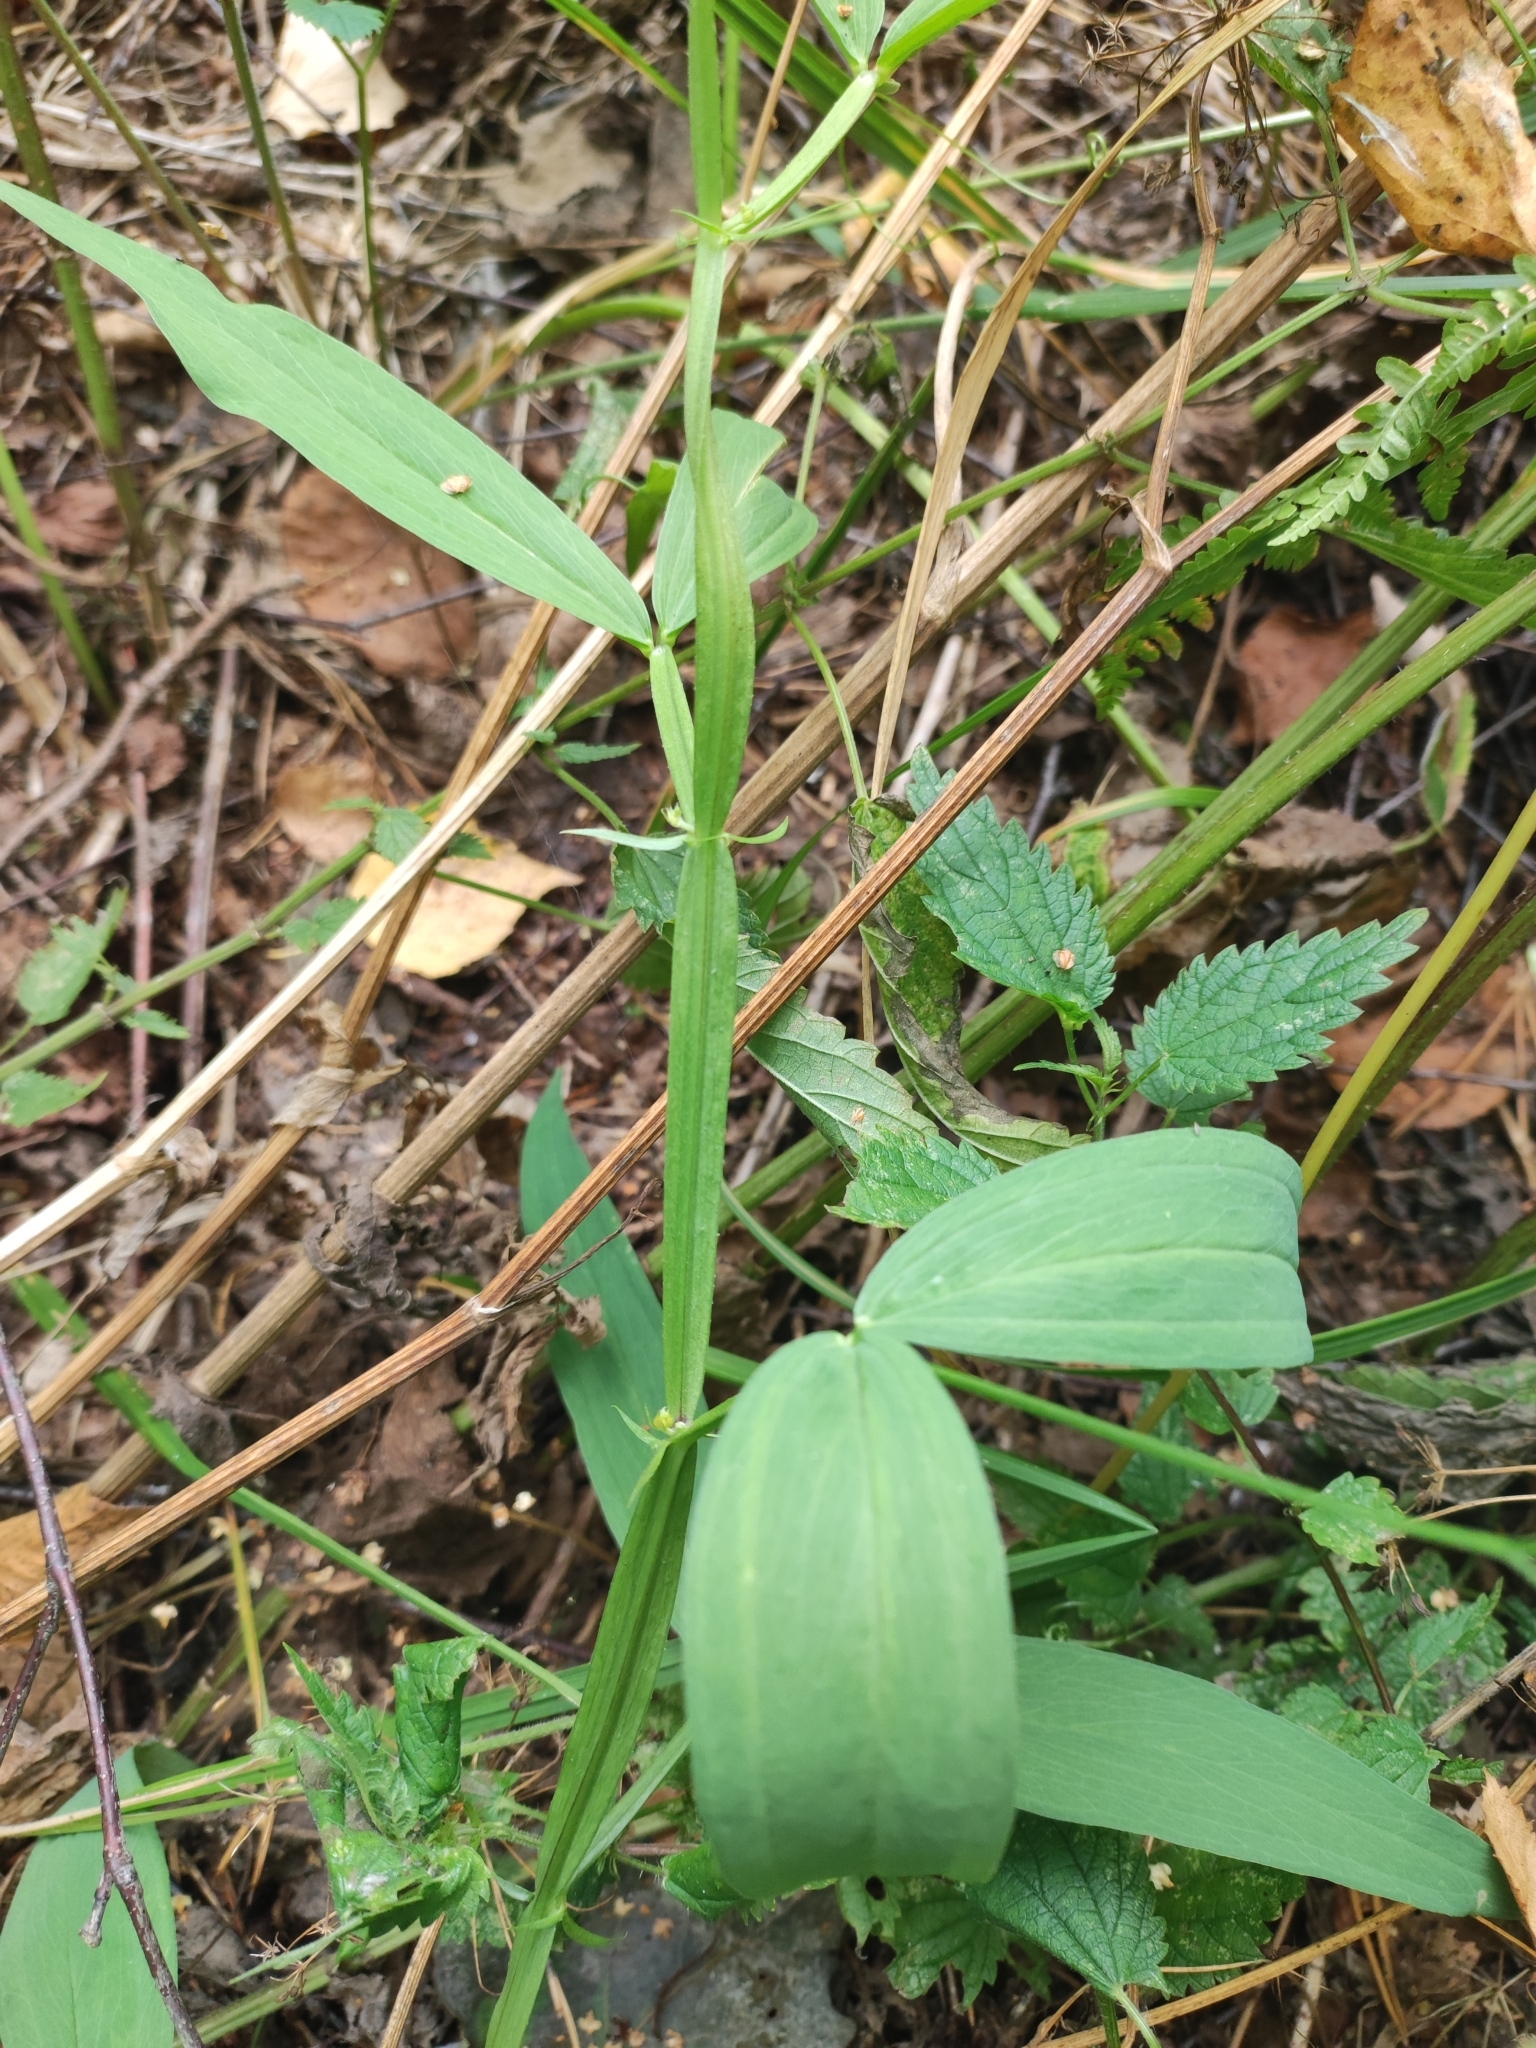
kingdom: Plantae
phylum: Tracheophyta
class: Magnoliopsida
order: Fabales
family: Fabaceae
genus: Lathyrus
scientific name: Lathyrus sylvestris
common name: Flat pea
